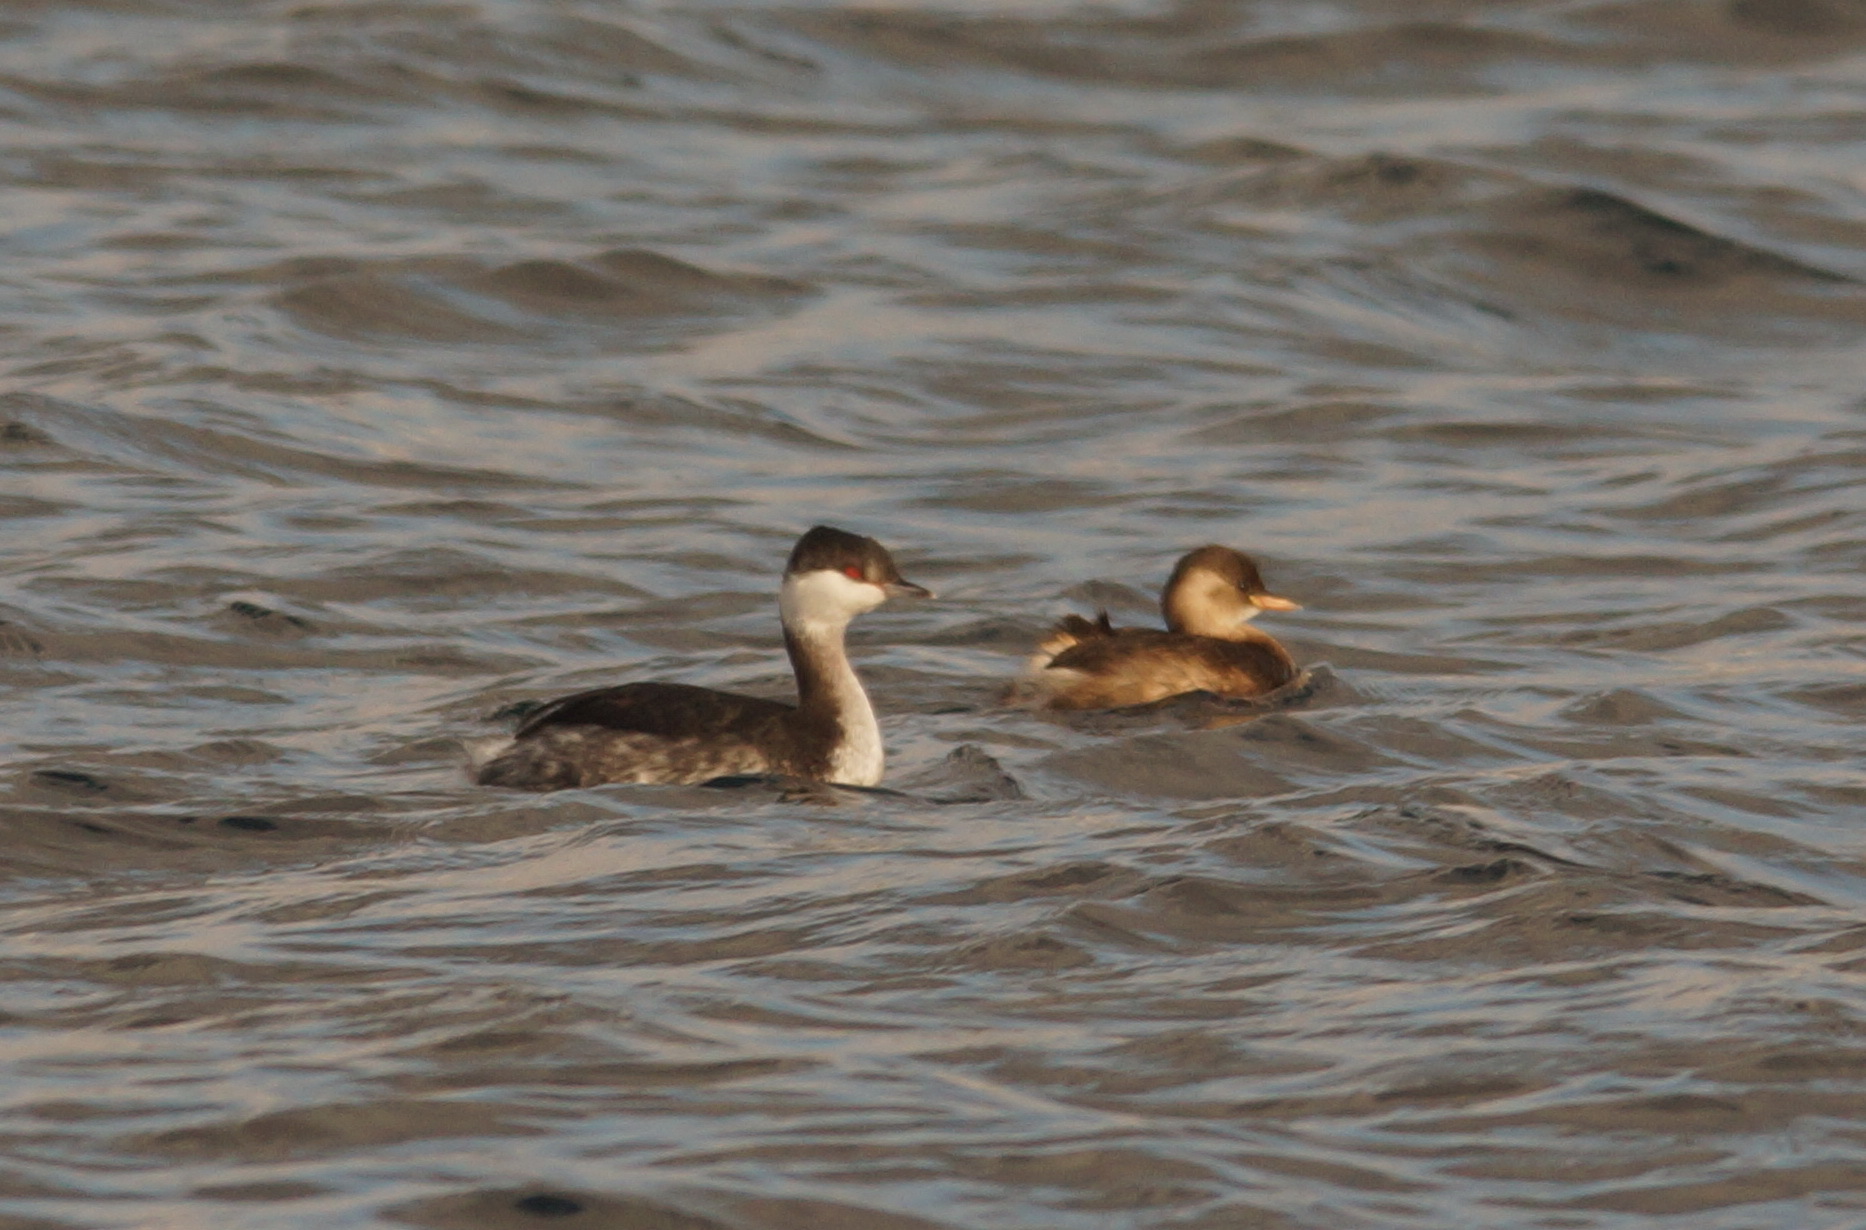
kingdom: Animalia
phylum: Chordata
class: Aves
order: Podicipediformes
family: Podicipedidae
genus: Tachybaptus
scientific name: Tachybaptus ruficollis
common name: Little grebe
